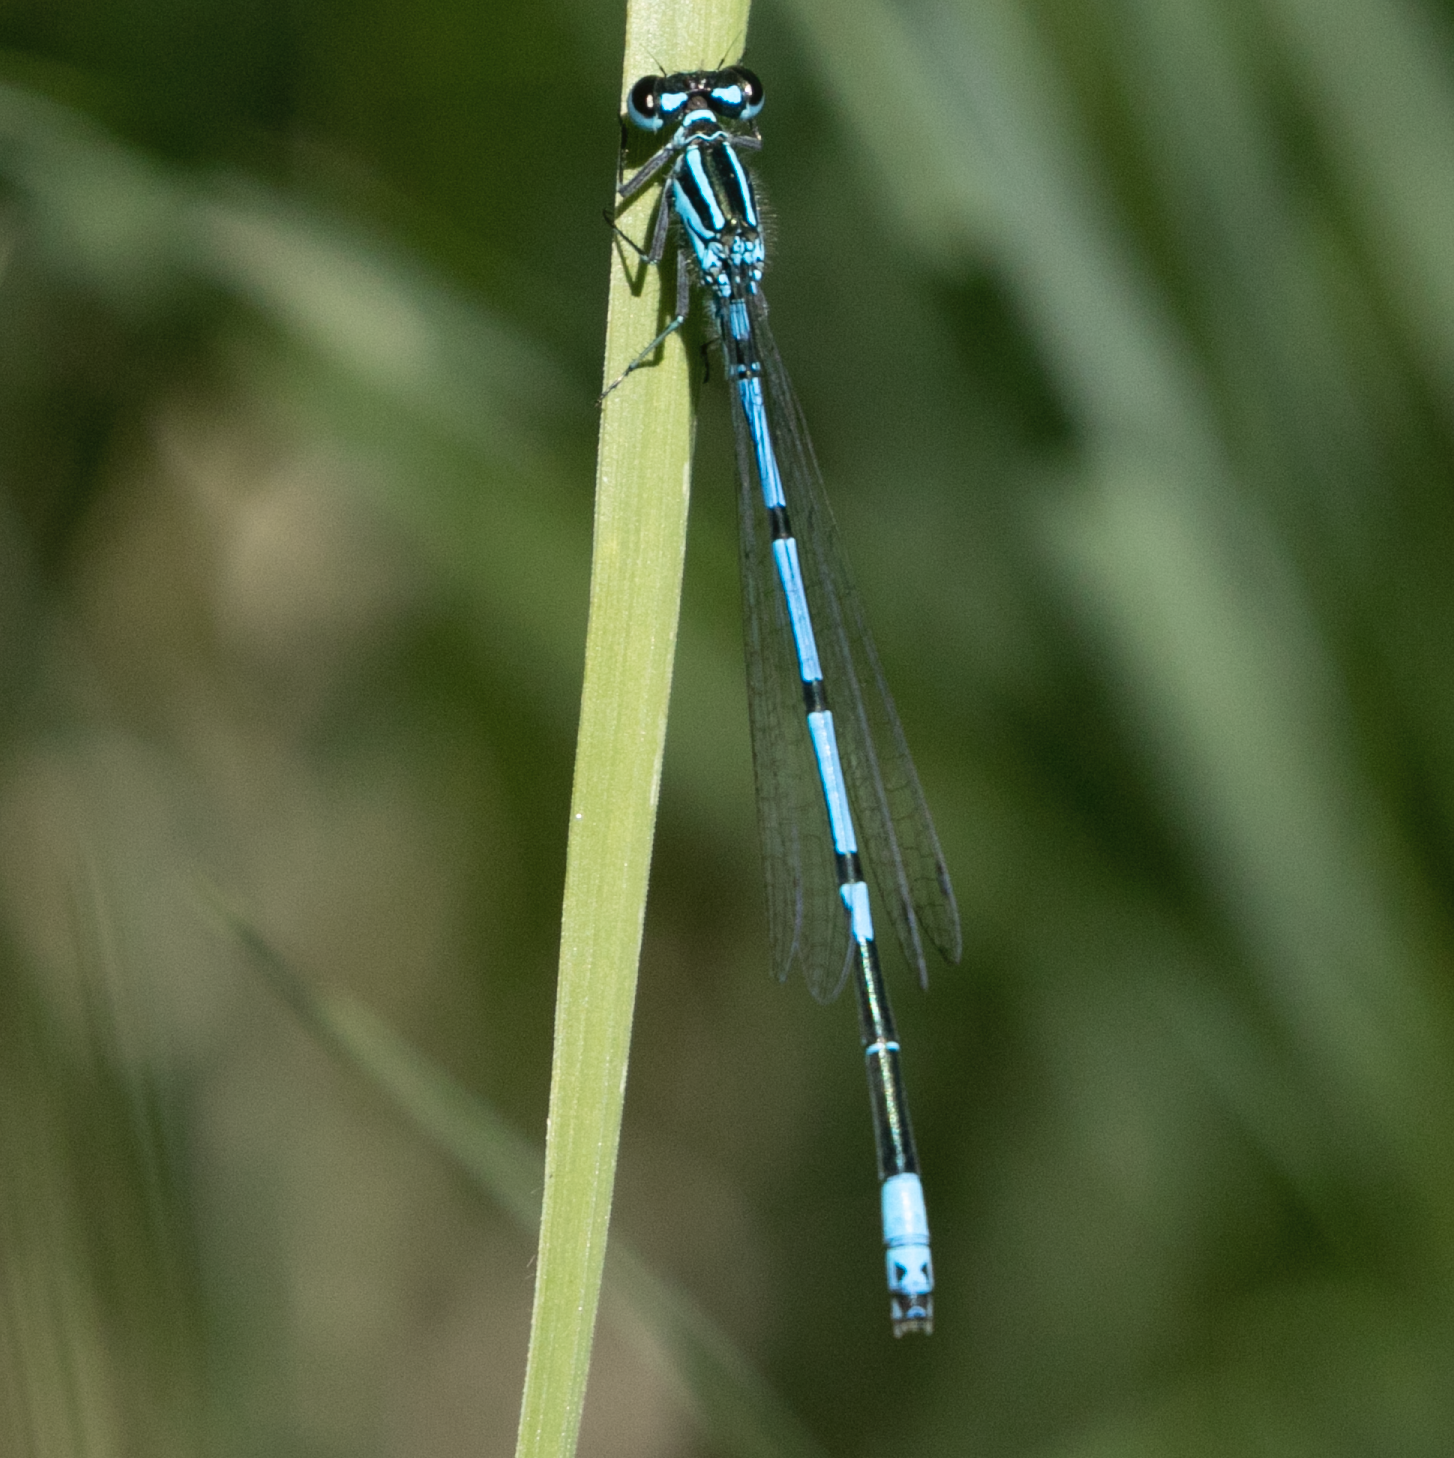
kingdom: Animalia
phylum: Arthropoda
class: Insecta
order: Odonata
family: Coenagrionidae
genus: Coenagrion
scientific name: Coenagrion puella
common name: Azure damselfly
